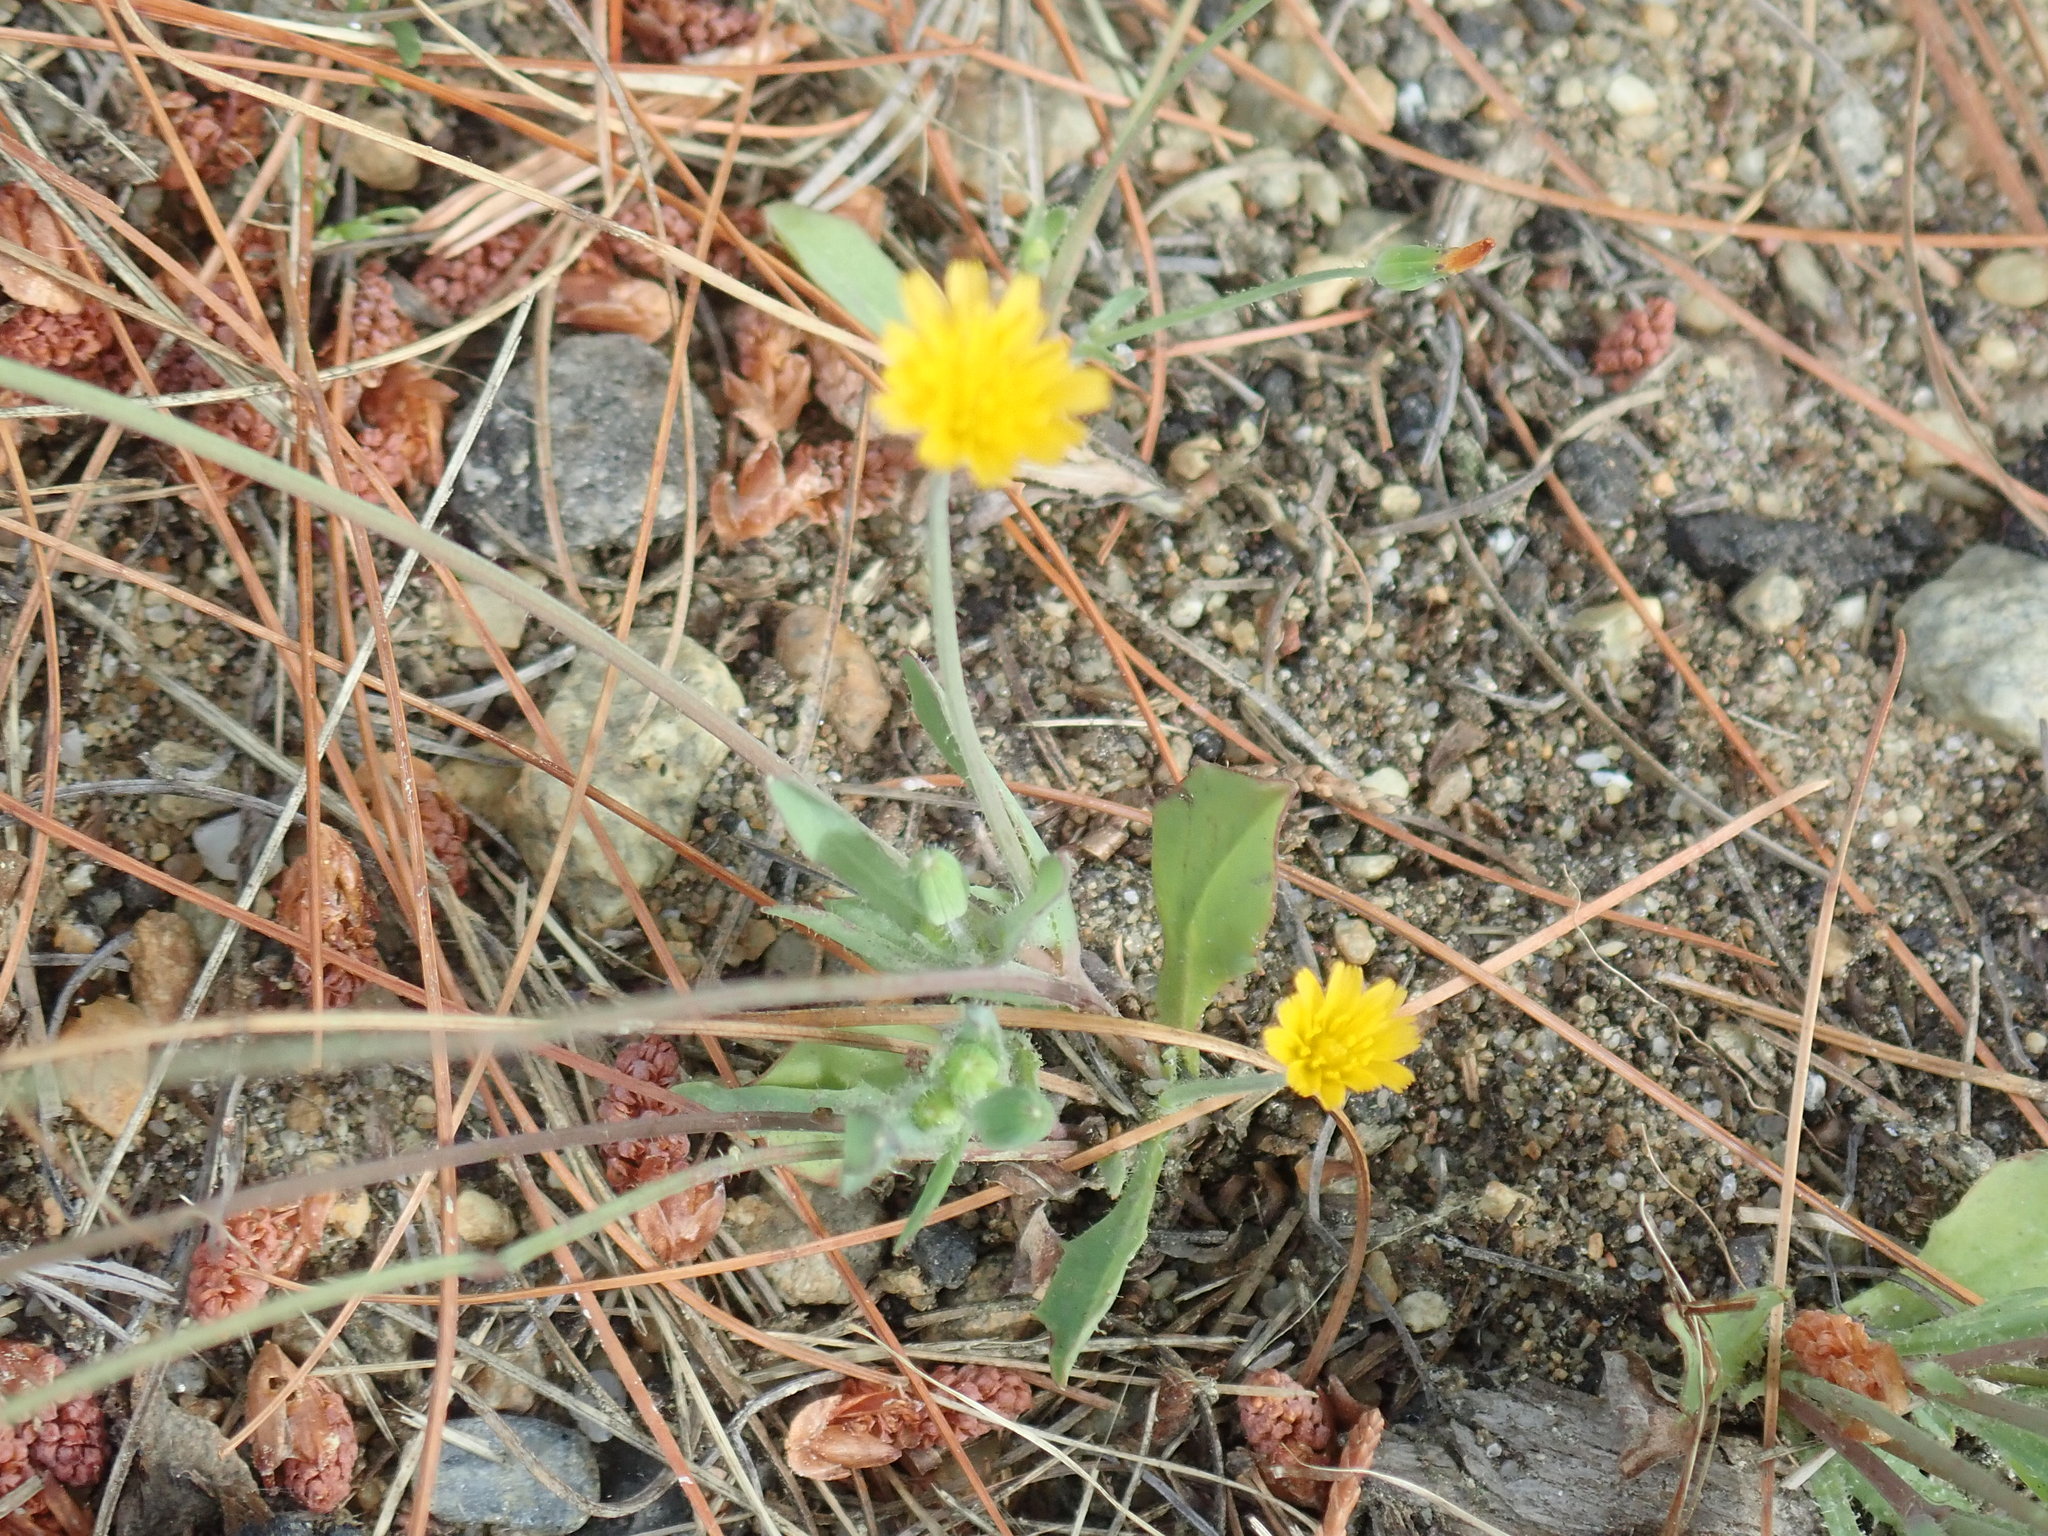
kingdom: Plantae
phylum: Tracheophyta
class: Magnoliopsida
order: Asterales
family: Asteraceae
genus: Krigia
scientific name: Krigia virginica
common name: Virginia dwarf-dandelion
